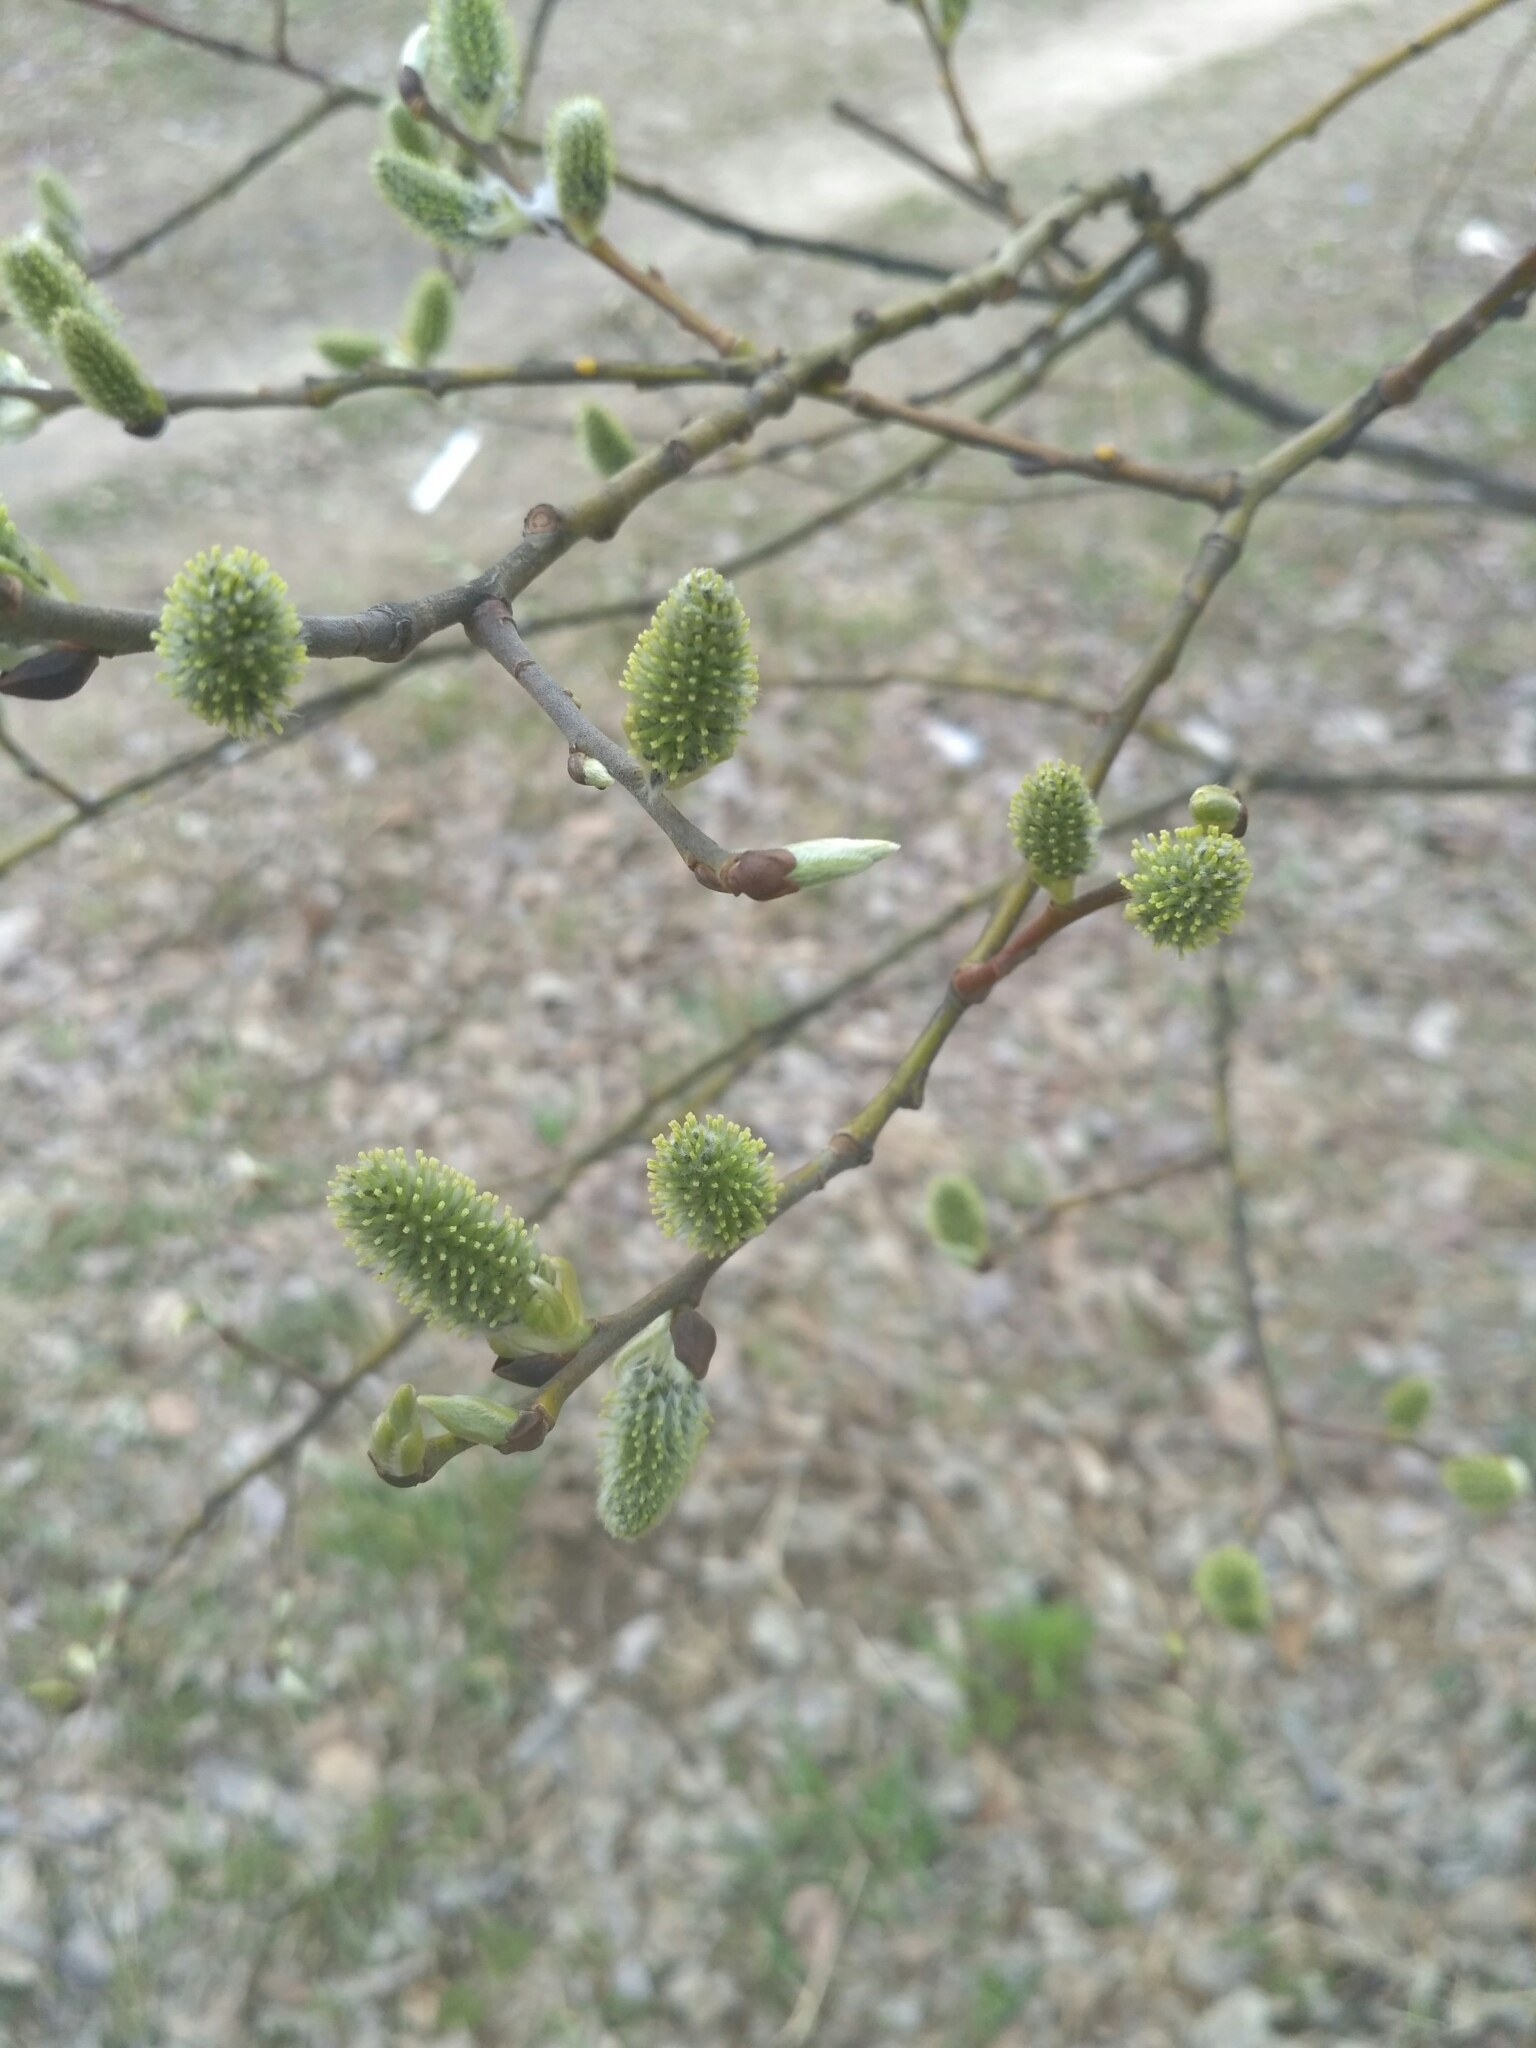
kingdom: Plantae
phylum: Tracheophyta
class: Magnoliopsida
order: Malpighiales
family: Salicaceae
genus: Salix
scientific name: Salix caprea
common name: Goat willow
